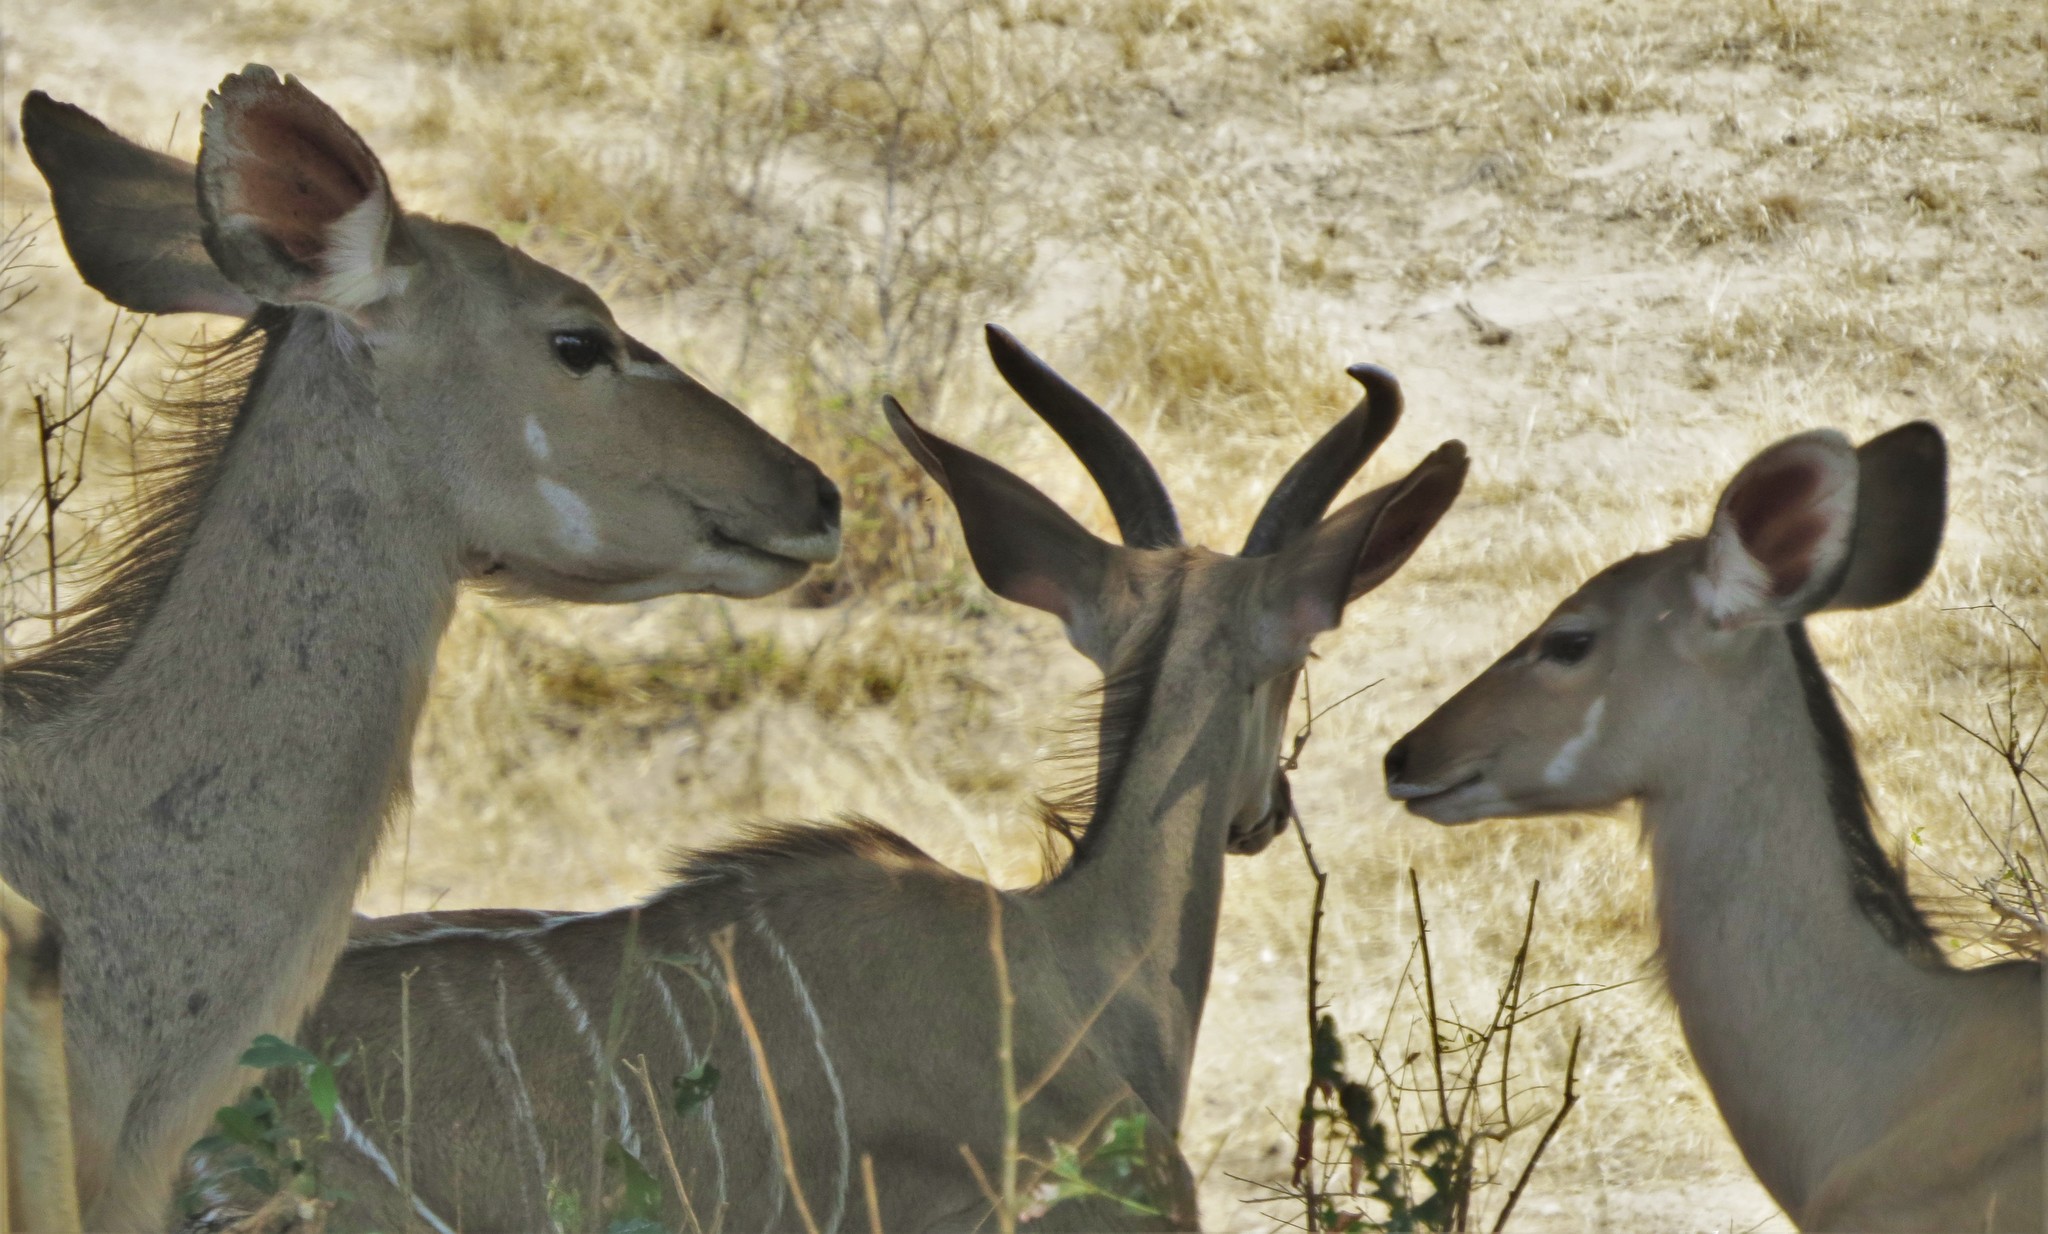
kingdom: Animalia
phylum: Chordata
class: Mammalia
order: Artiodactyla
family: Bovidae
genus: Tragelaphus
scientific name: Tragelaphus strepsiceros
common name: Greater kudu
